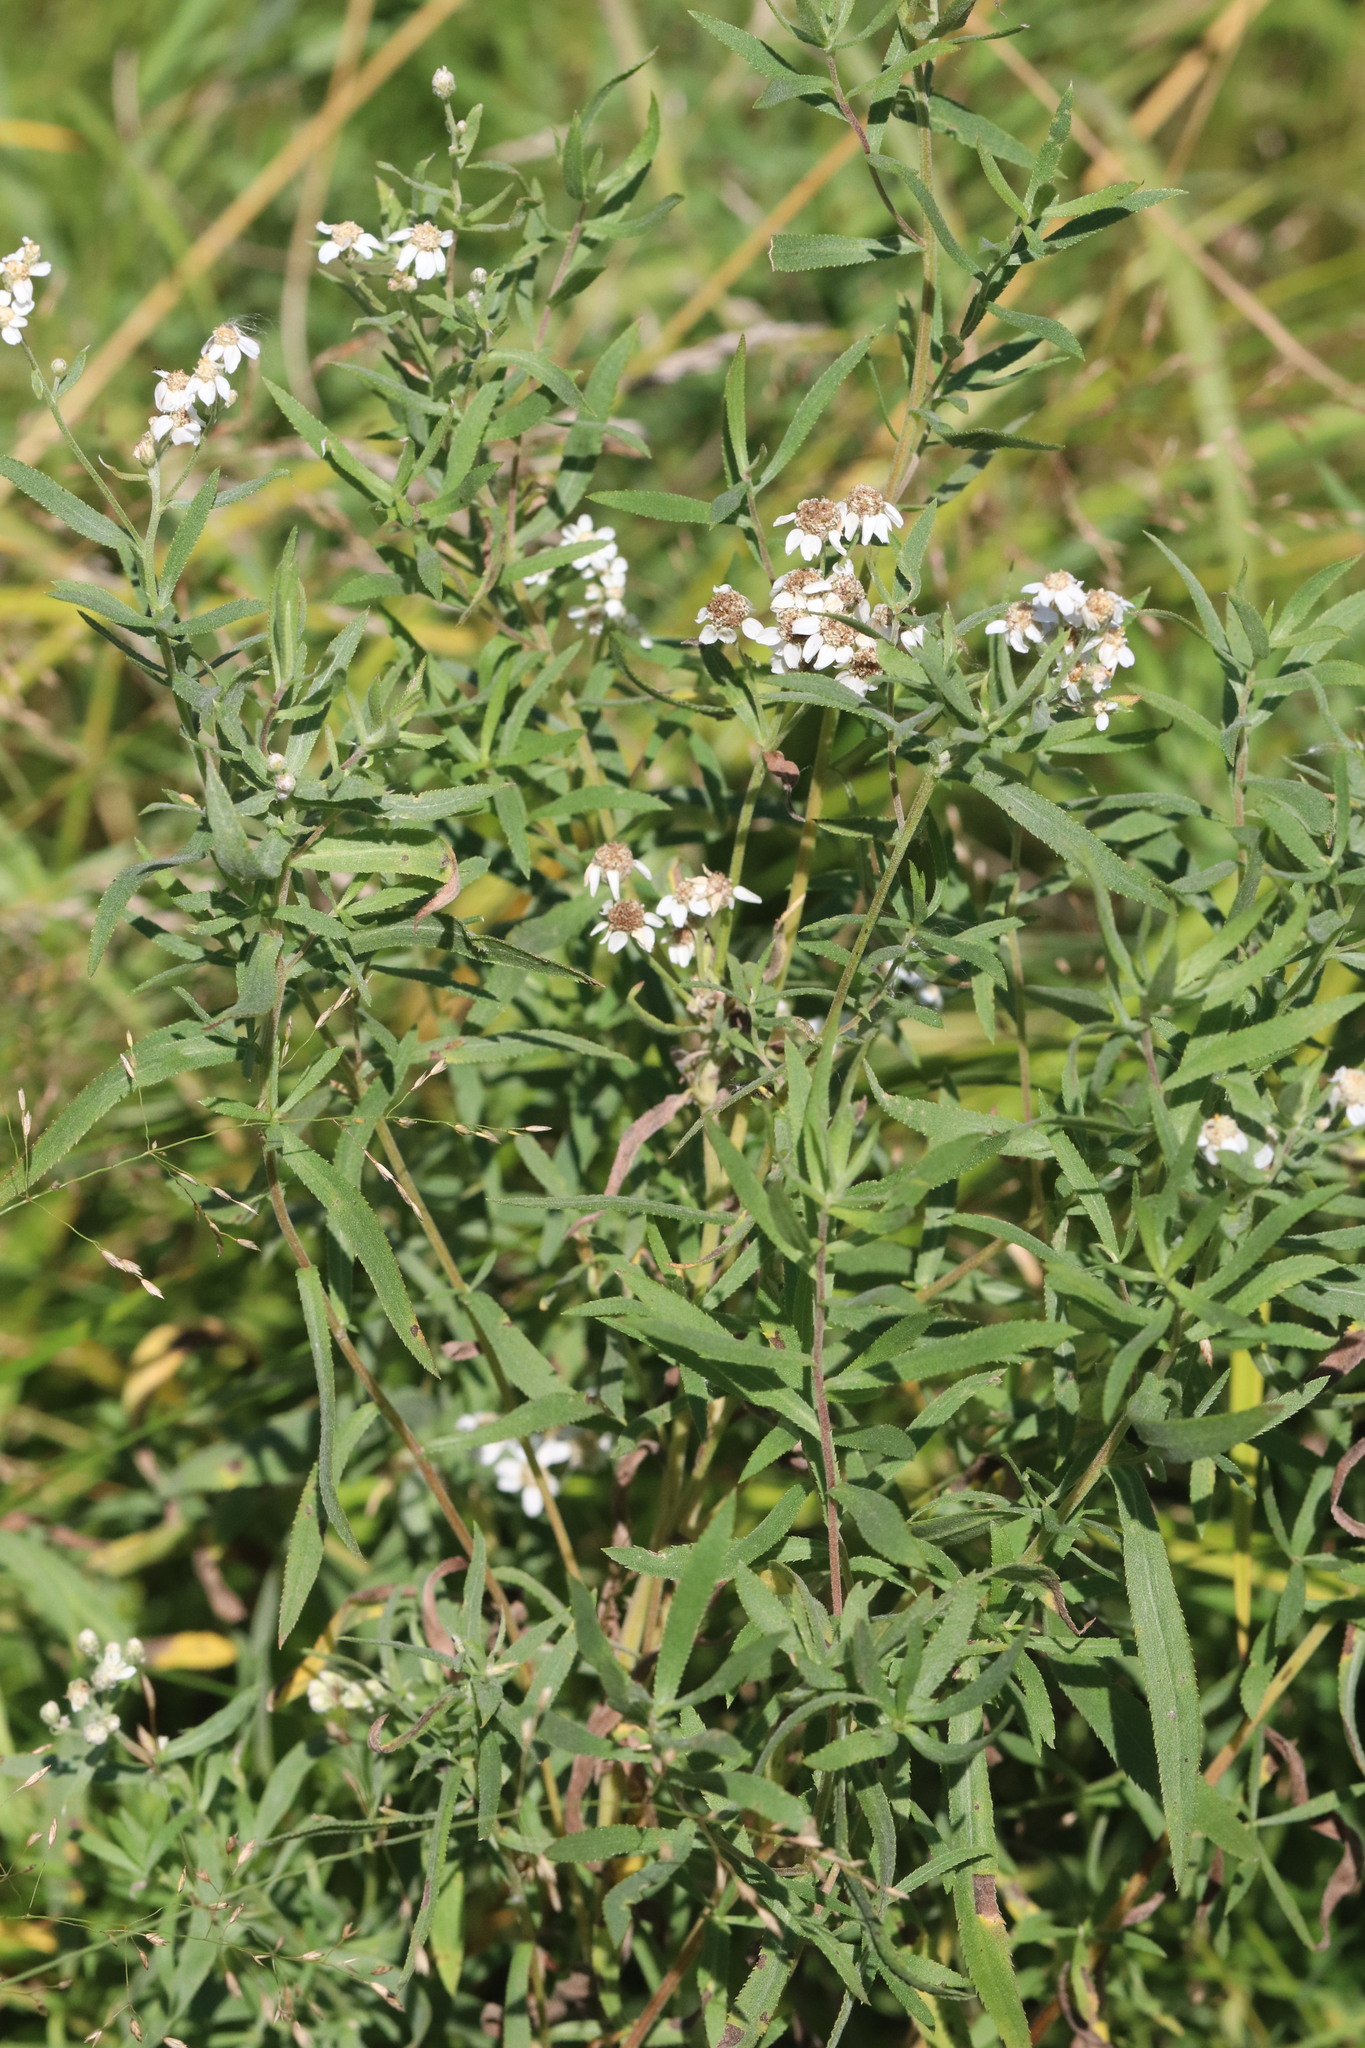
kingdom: Plantae
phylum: Tracheophyta
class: Magnoliopsida
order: Asterales
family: Asteraceae
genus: Achillea
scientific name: Achillea salicifolia
